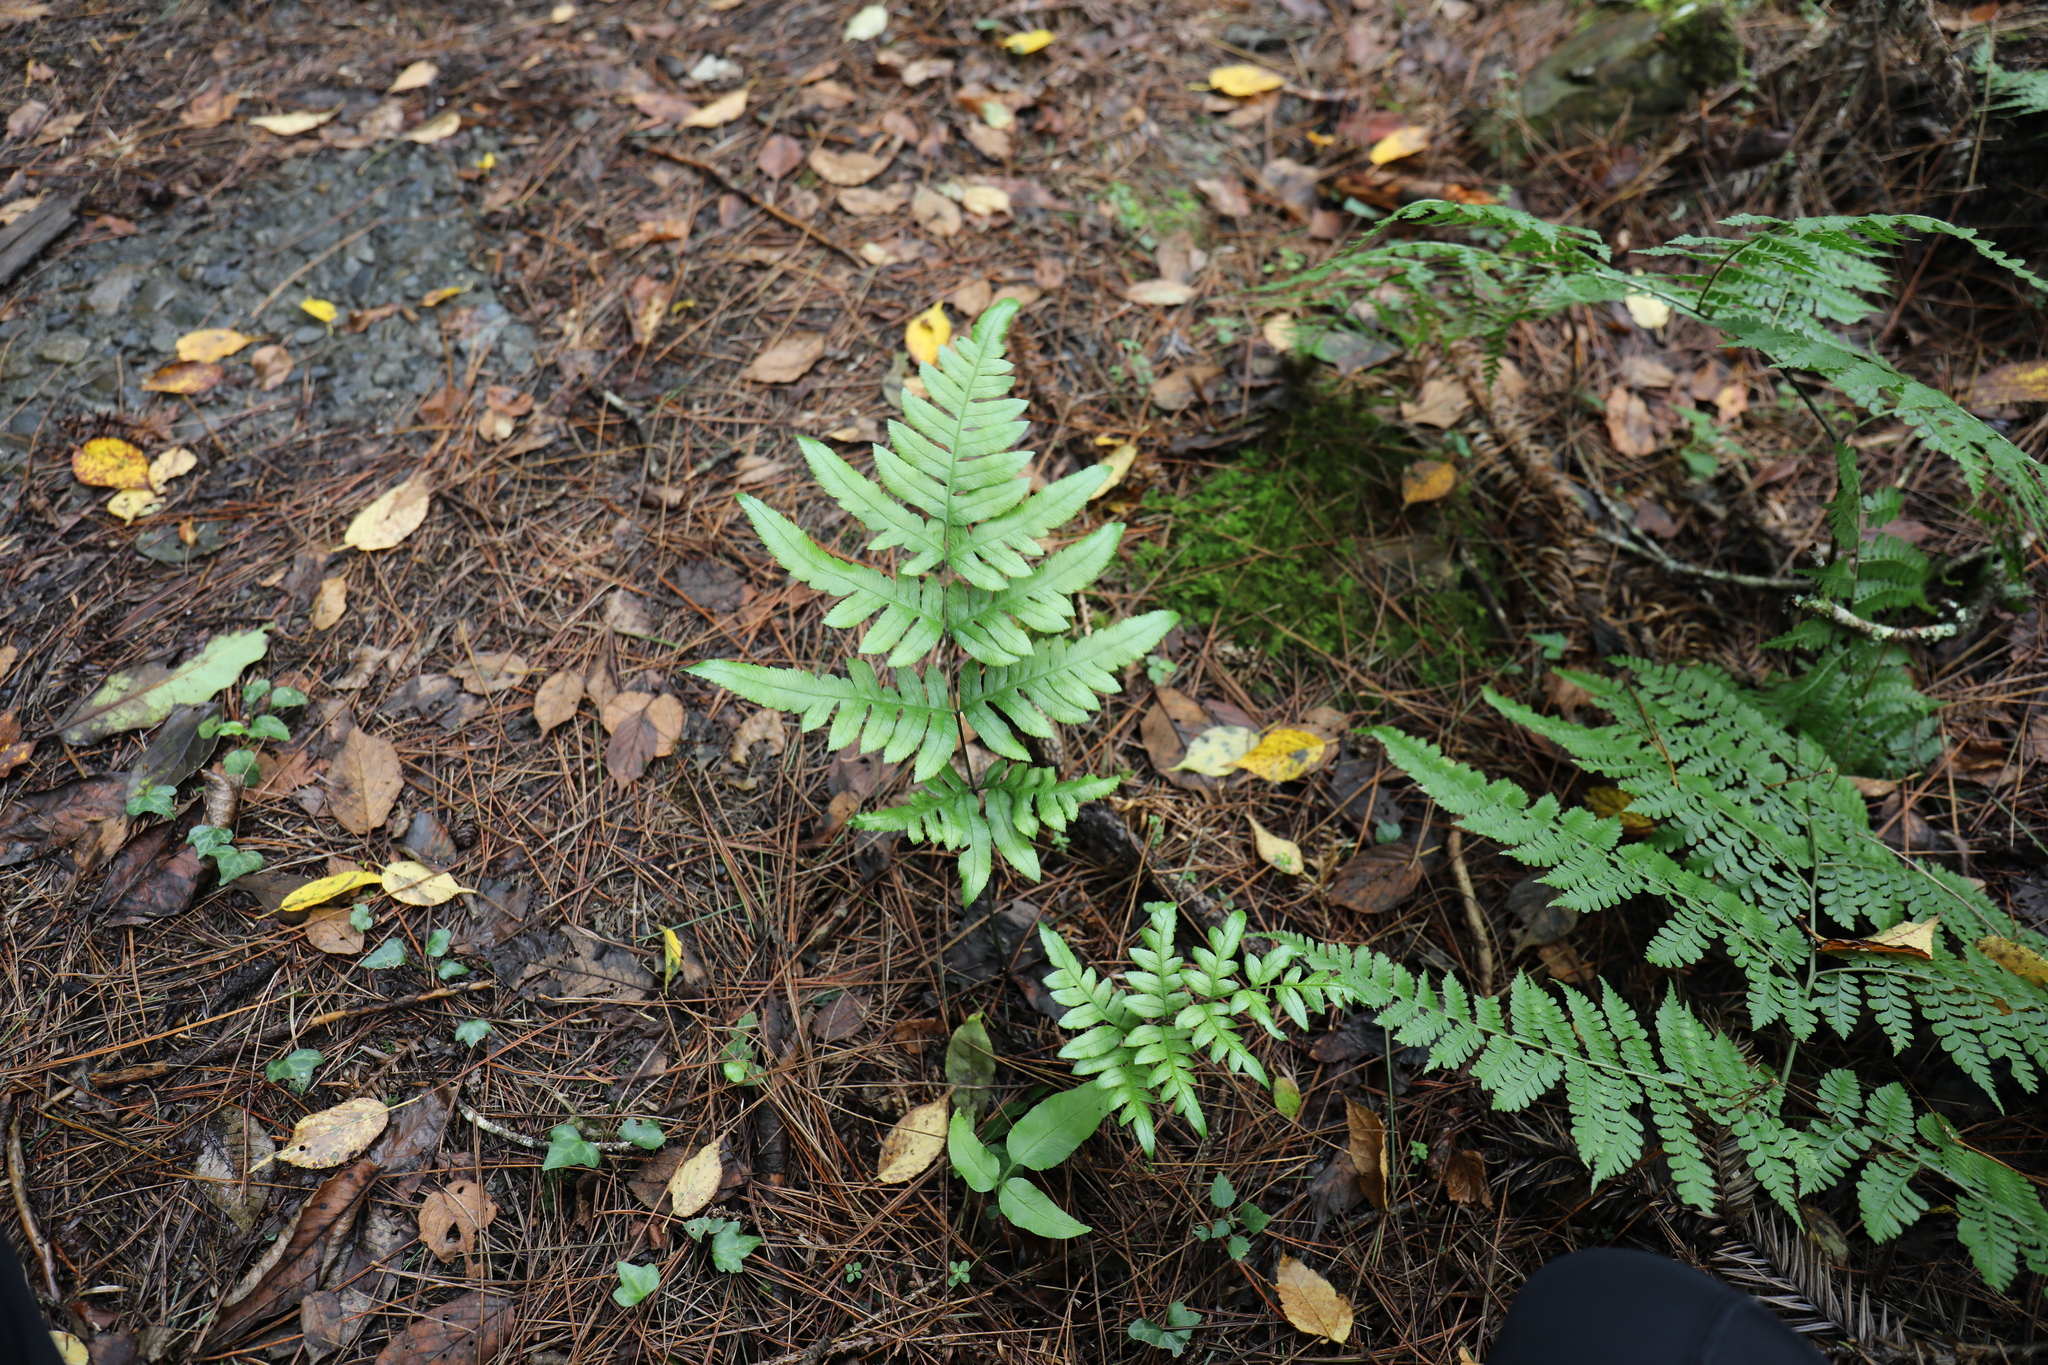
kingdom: Plantae
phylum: Tracheophyta
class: Polypodiopsida
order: Polypodiales
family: Pteridaceae
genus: Pteris
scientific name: Pteris dispar
